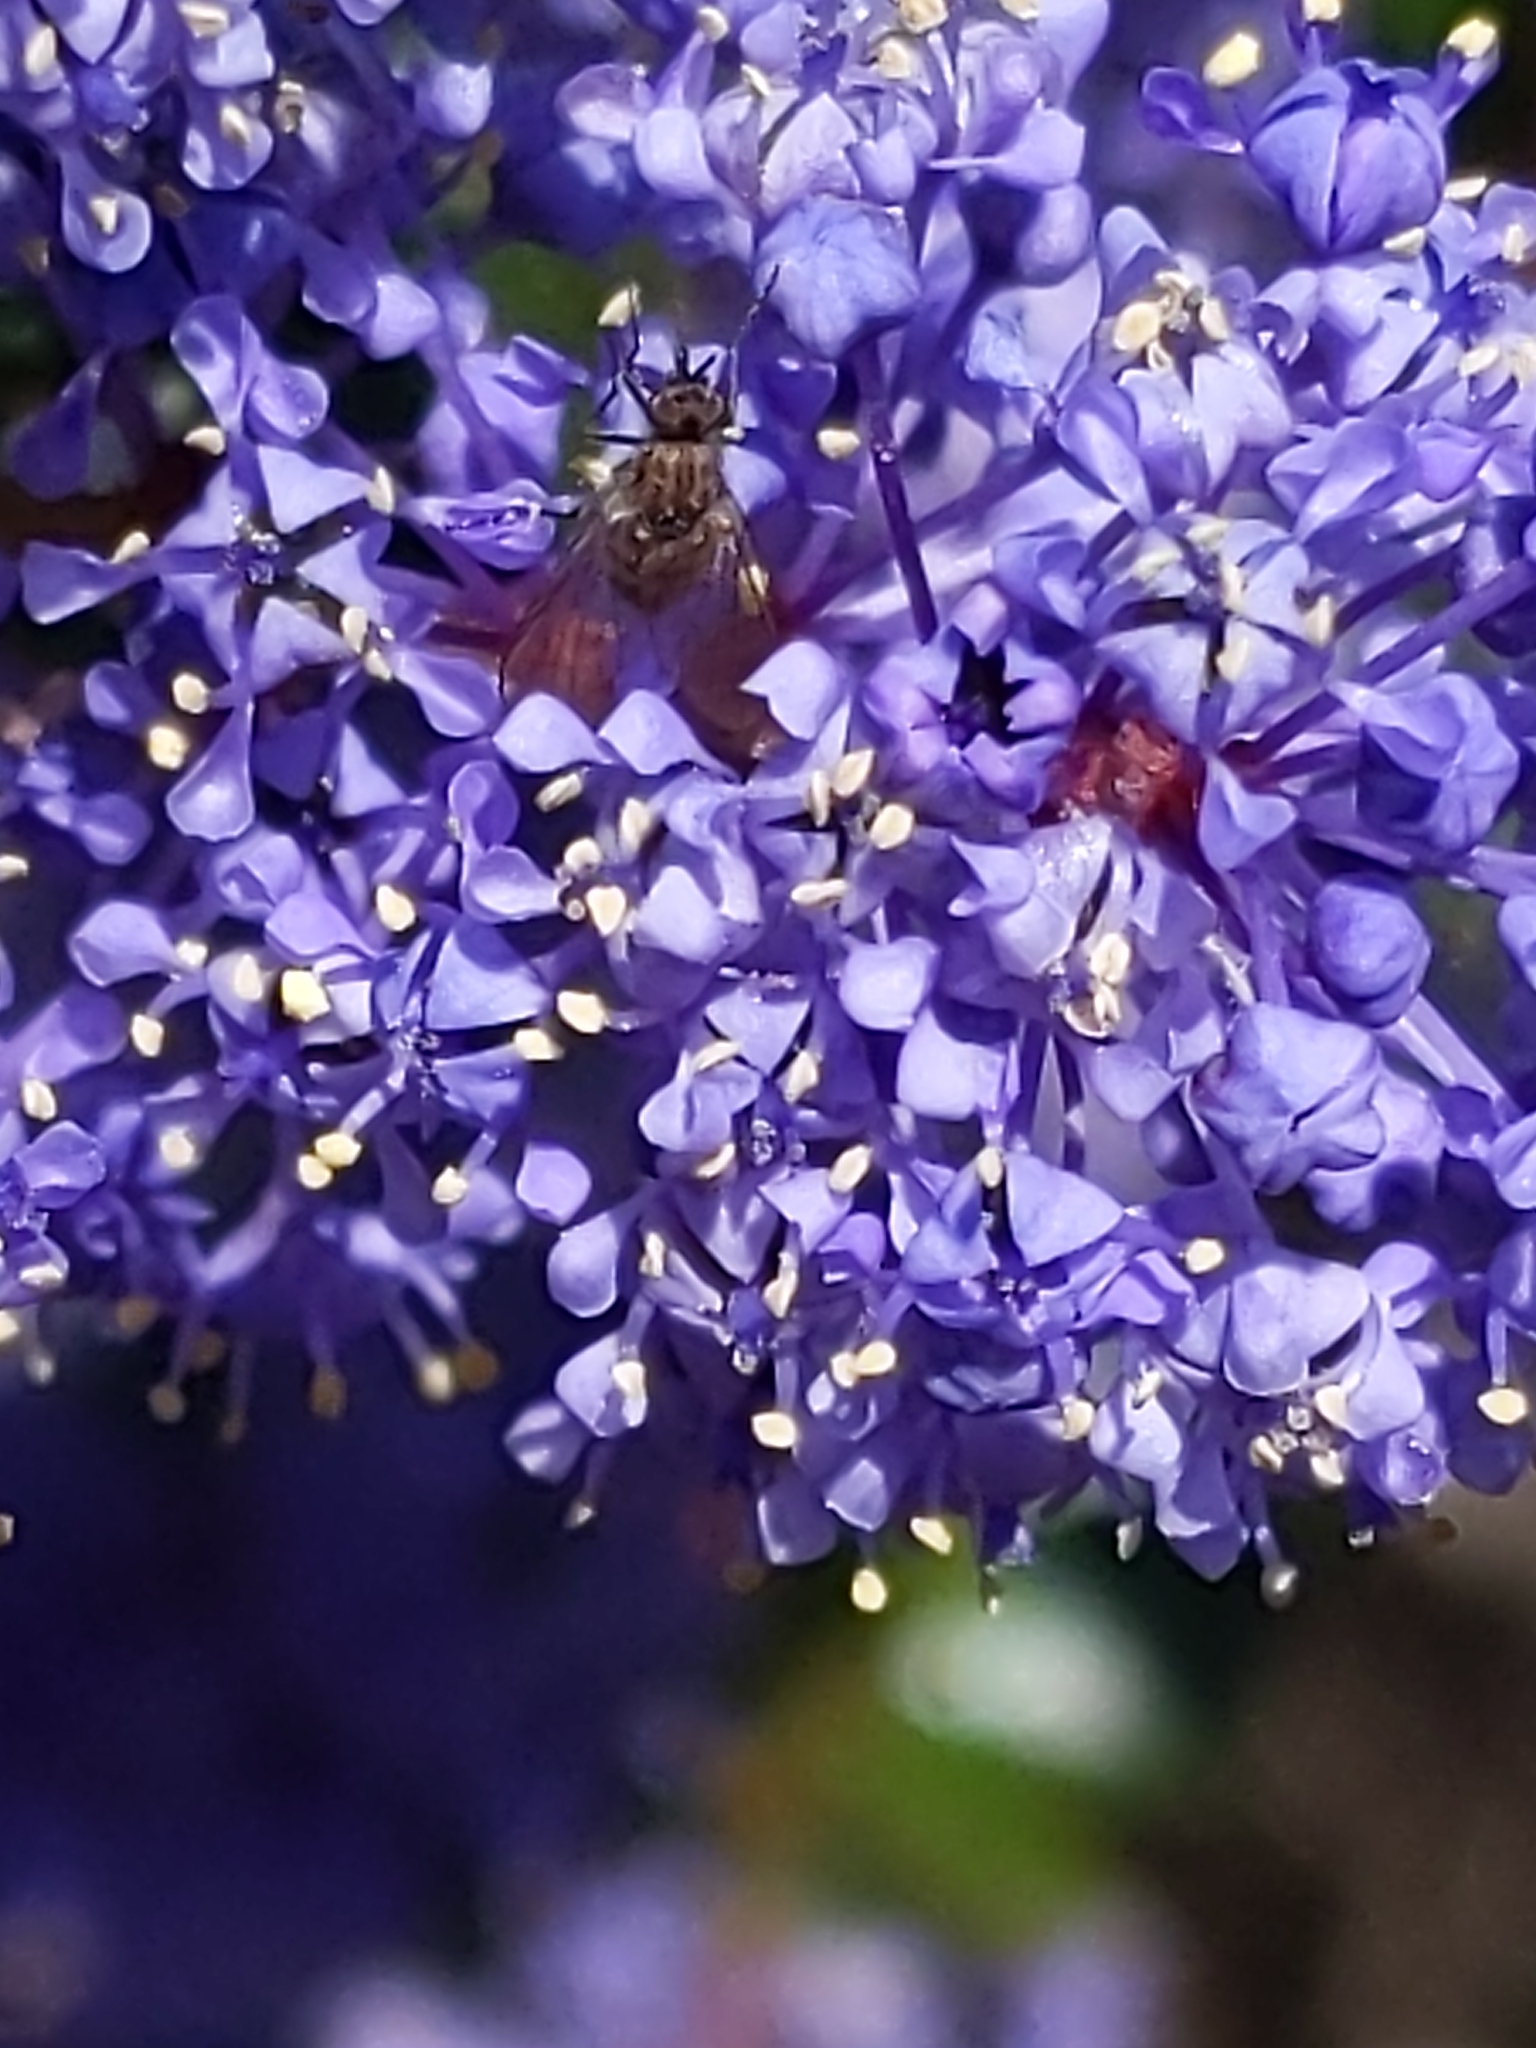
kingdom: Plantae
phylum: Tracheophyta
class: Magnoliopsida
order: Rosales
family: Rhamnaceae
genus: Ceanothus
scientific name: Ceanothus tomentosus
